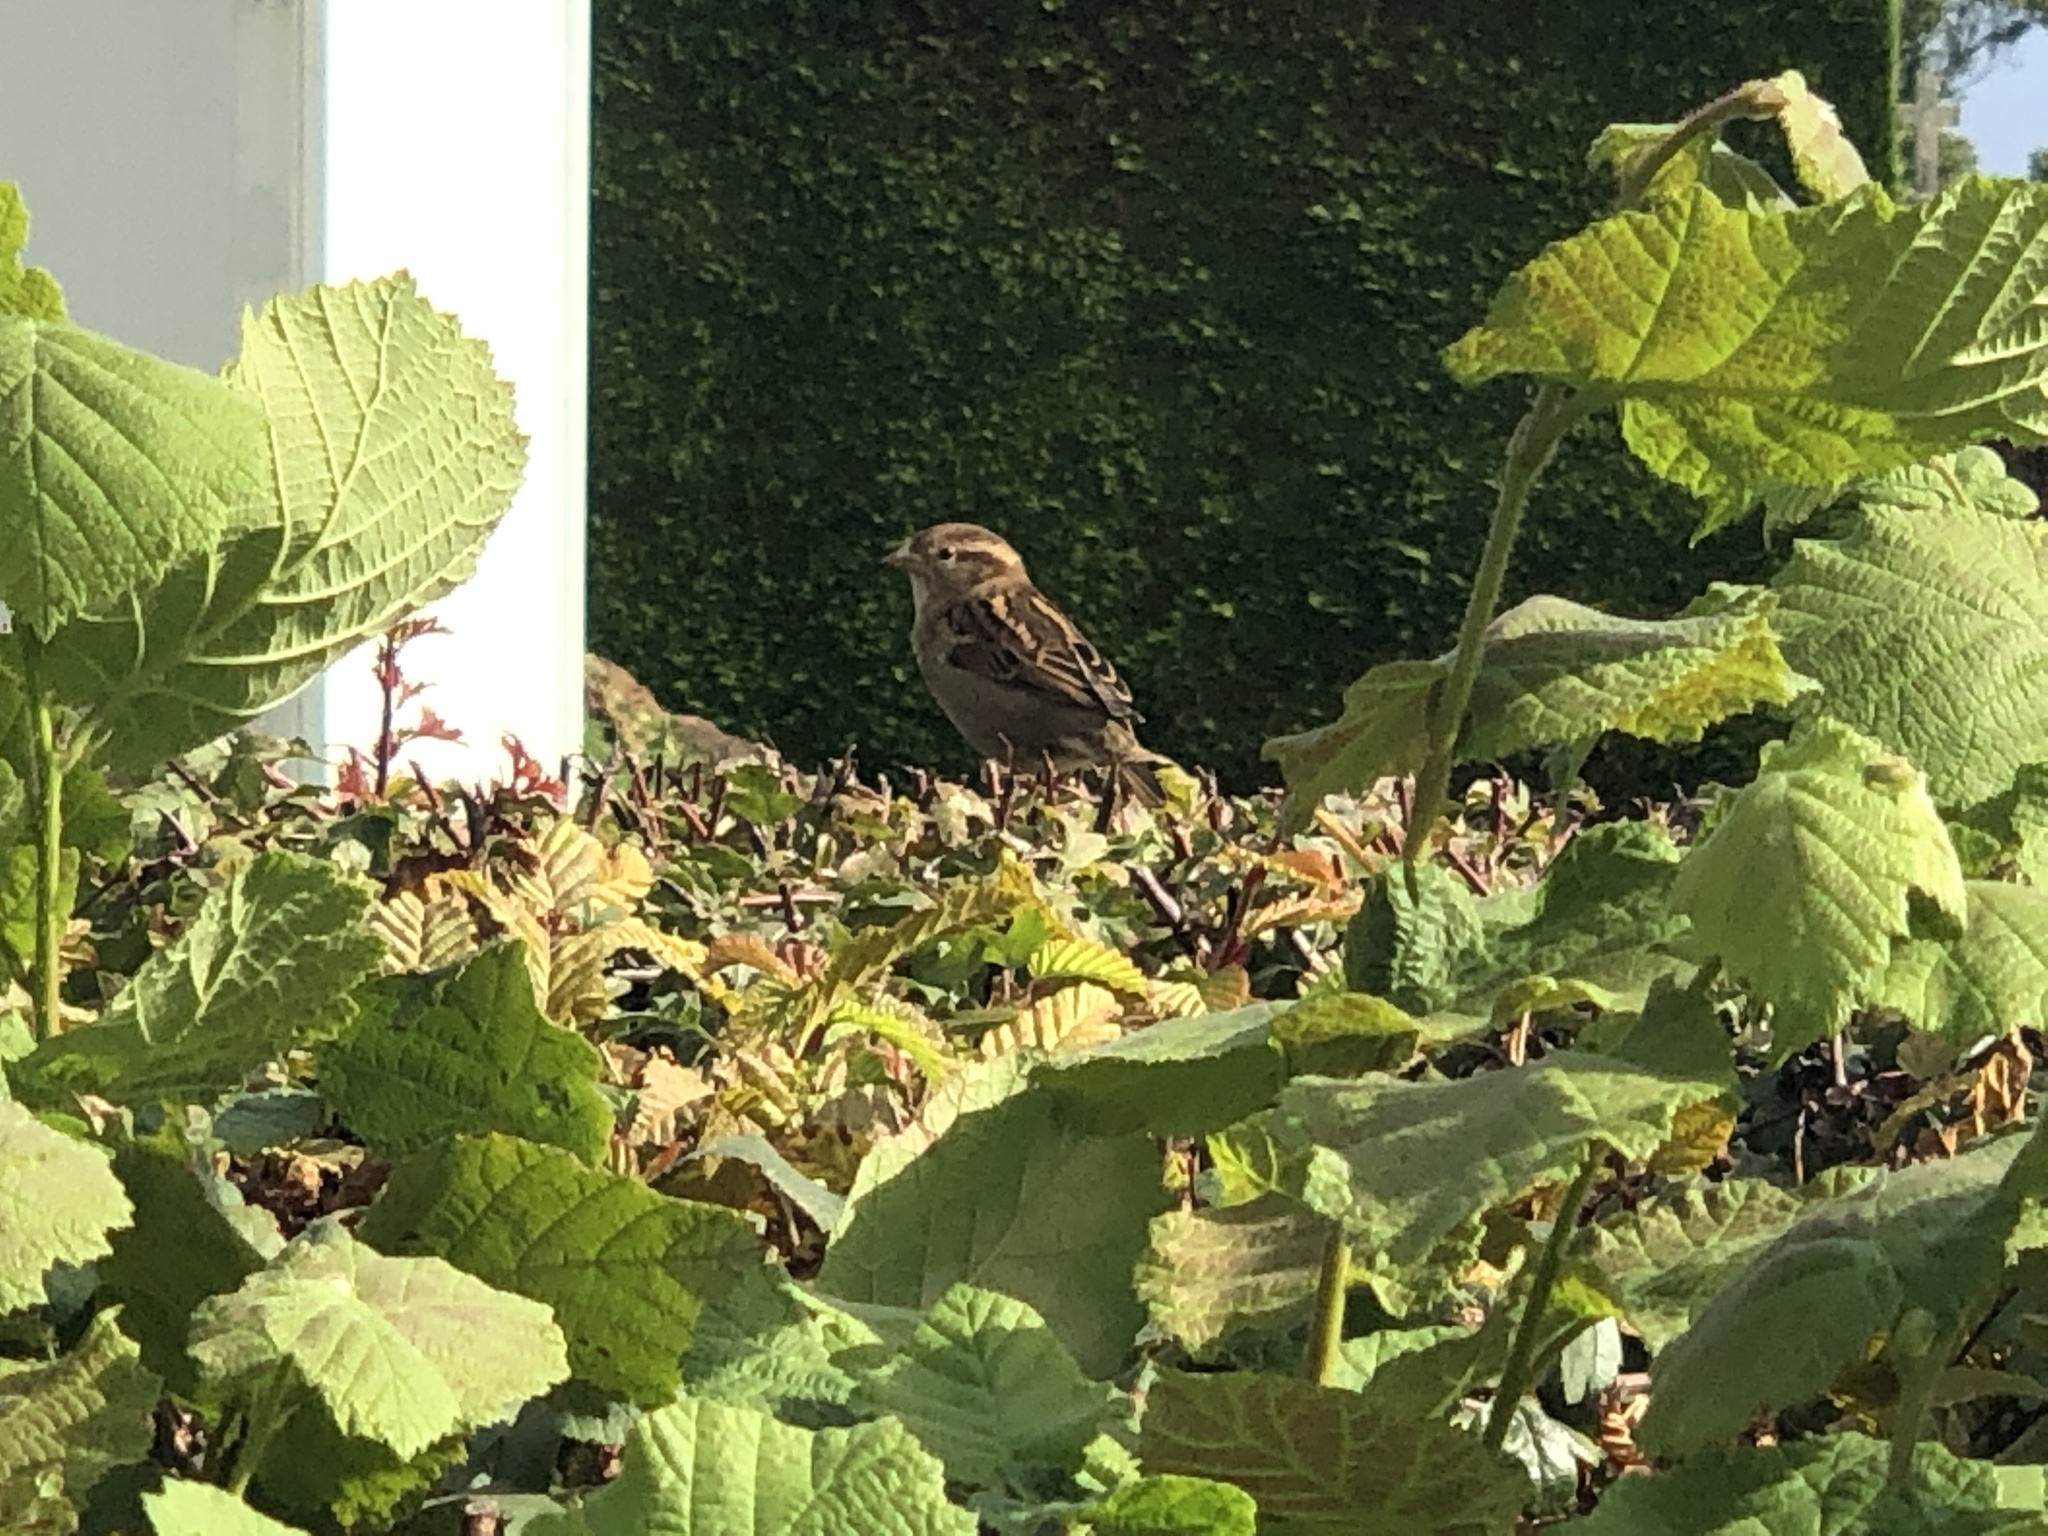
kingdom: Animalia
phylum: Chordata
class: Aves
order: Passeriformes
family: Passeridae
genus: Passer
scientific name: Passer domesticus
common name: House sparrow
